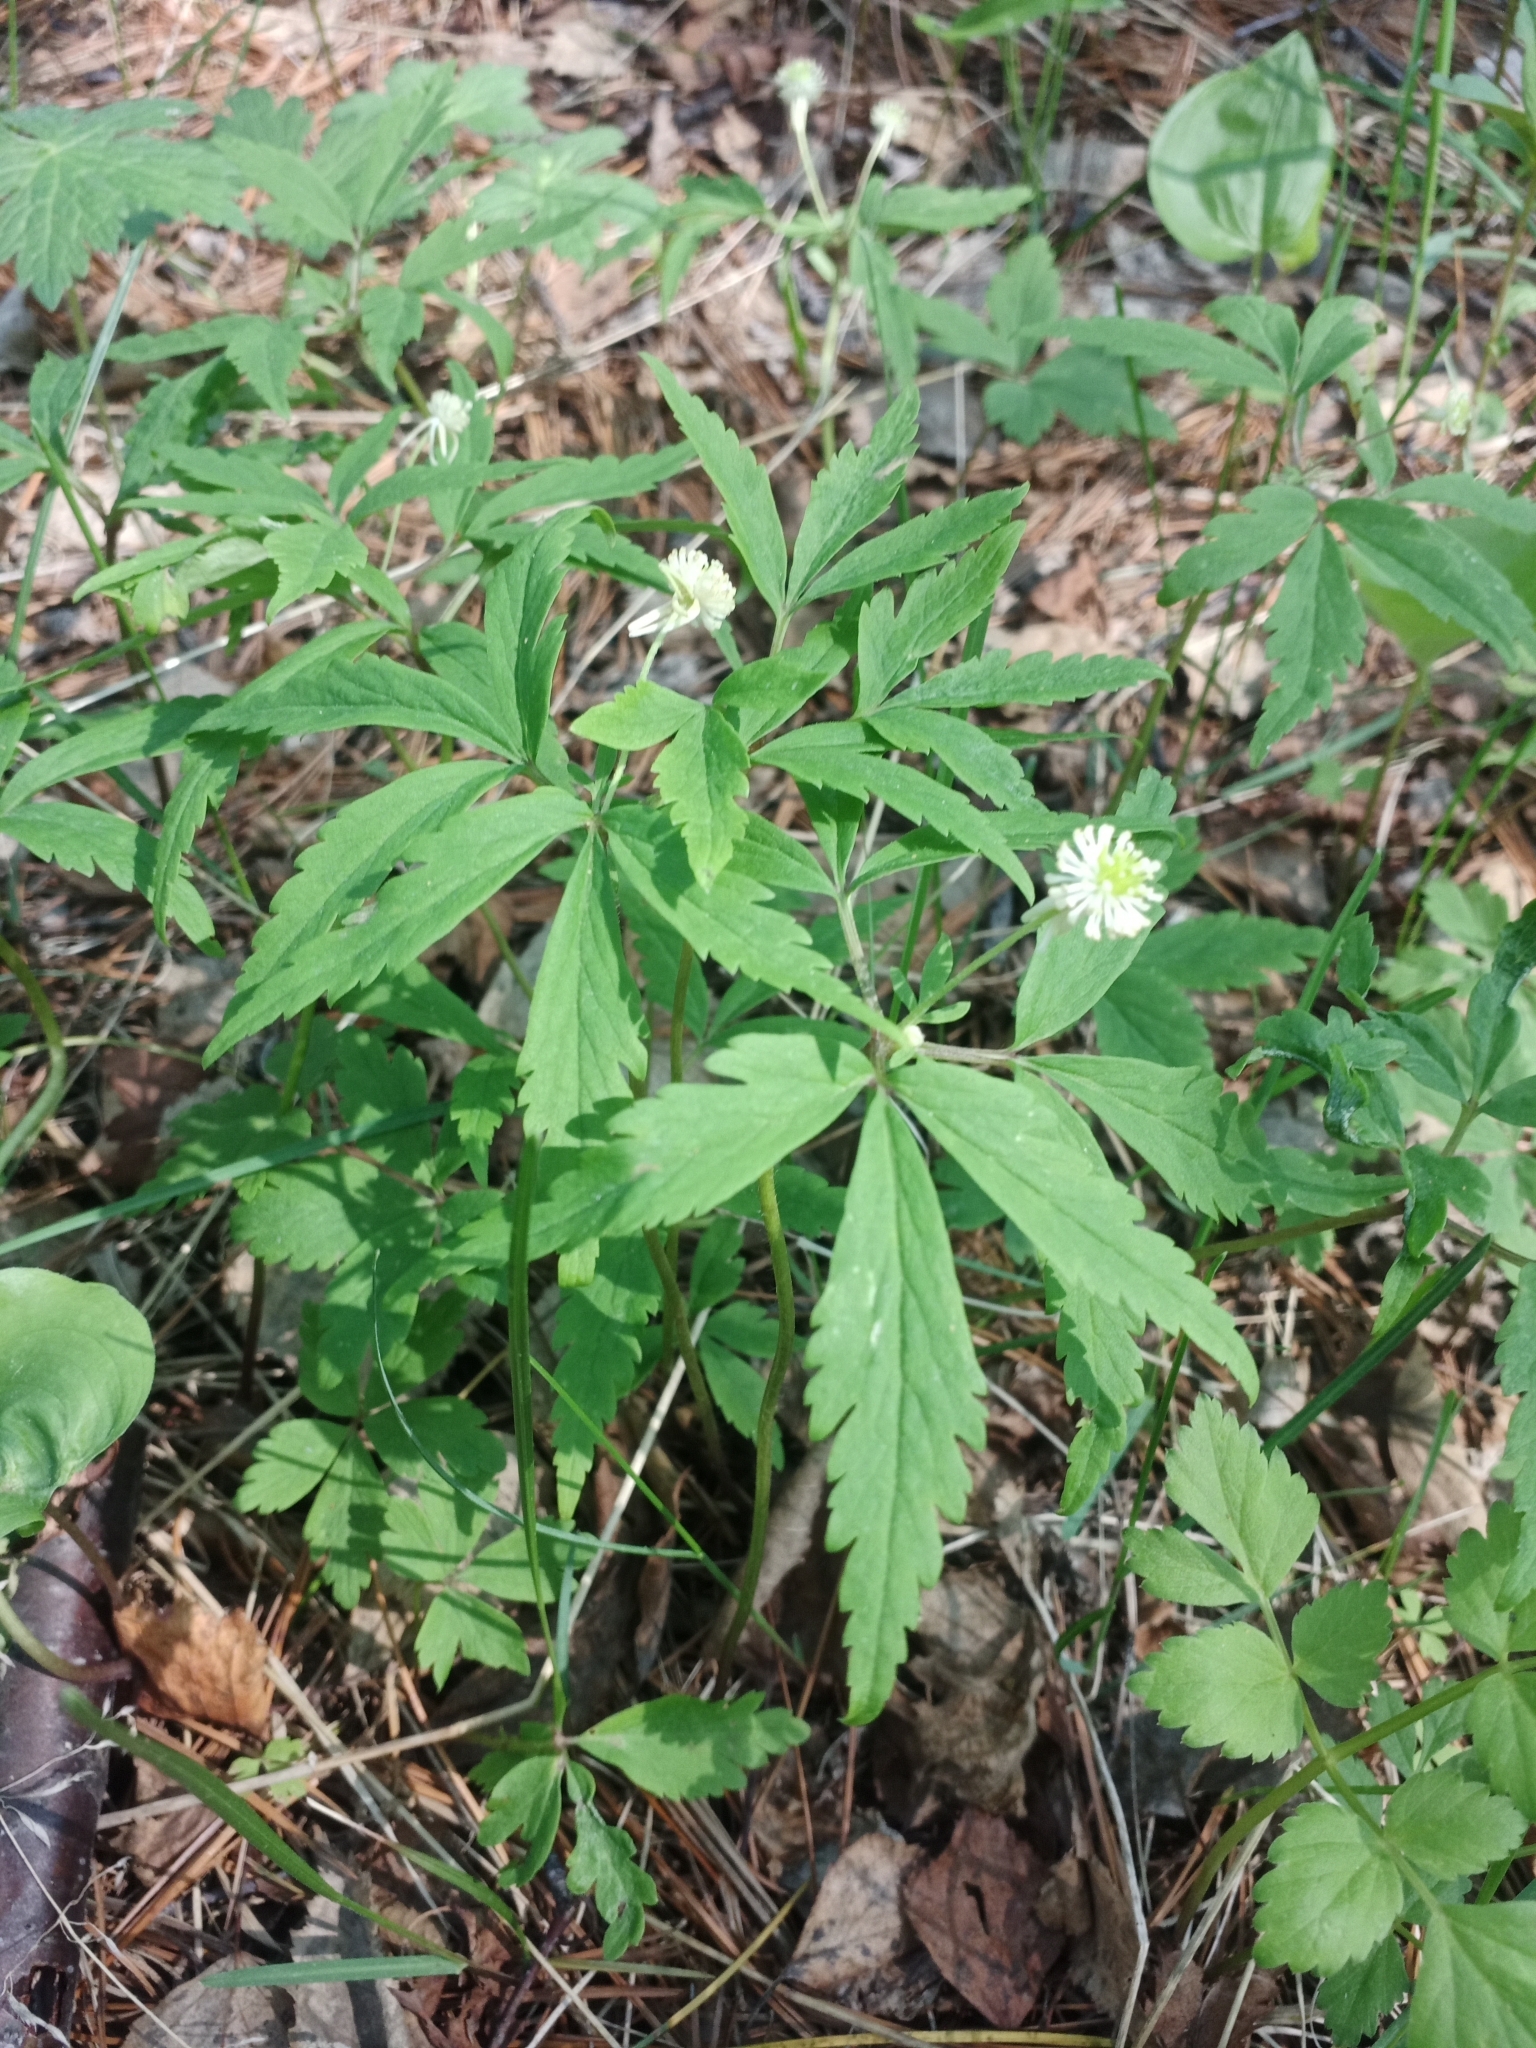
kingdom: Plantae
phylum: Tracheophyta
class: Magnoliopsida
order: Ranunculales
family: Ranunculaceae
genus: Anemone
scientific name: Anemone reflexa
